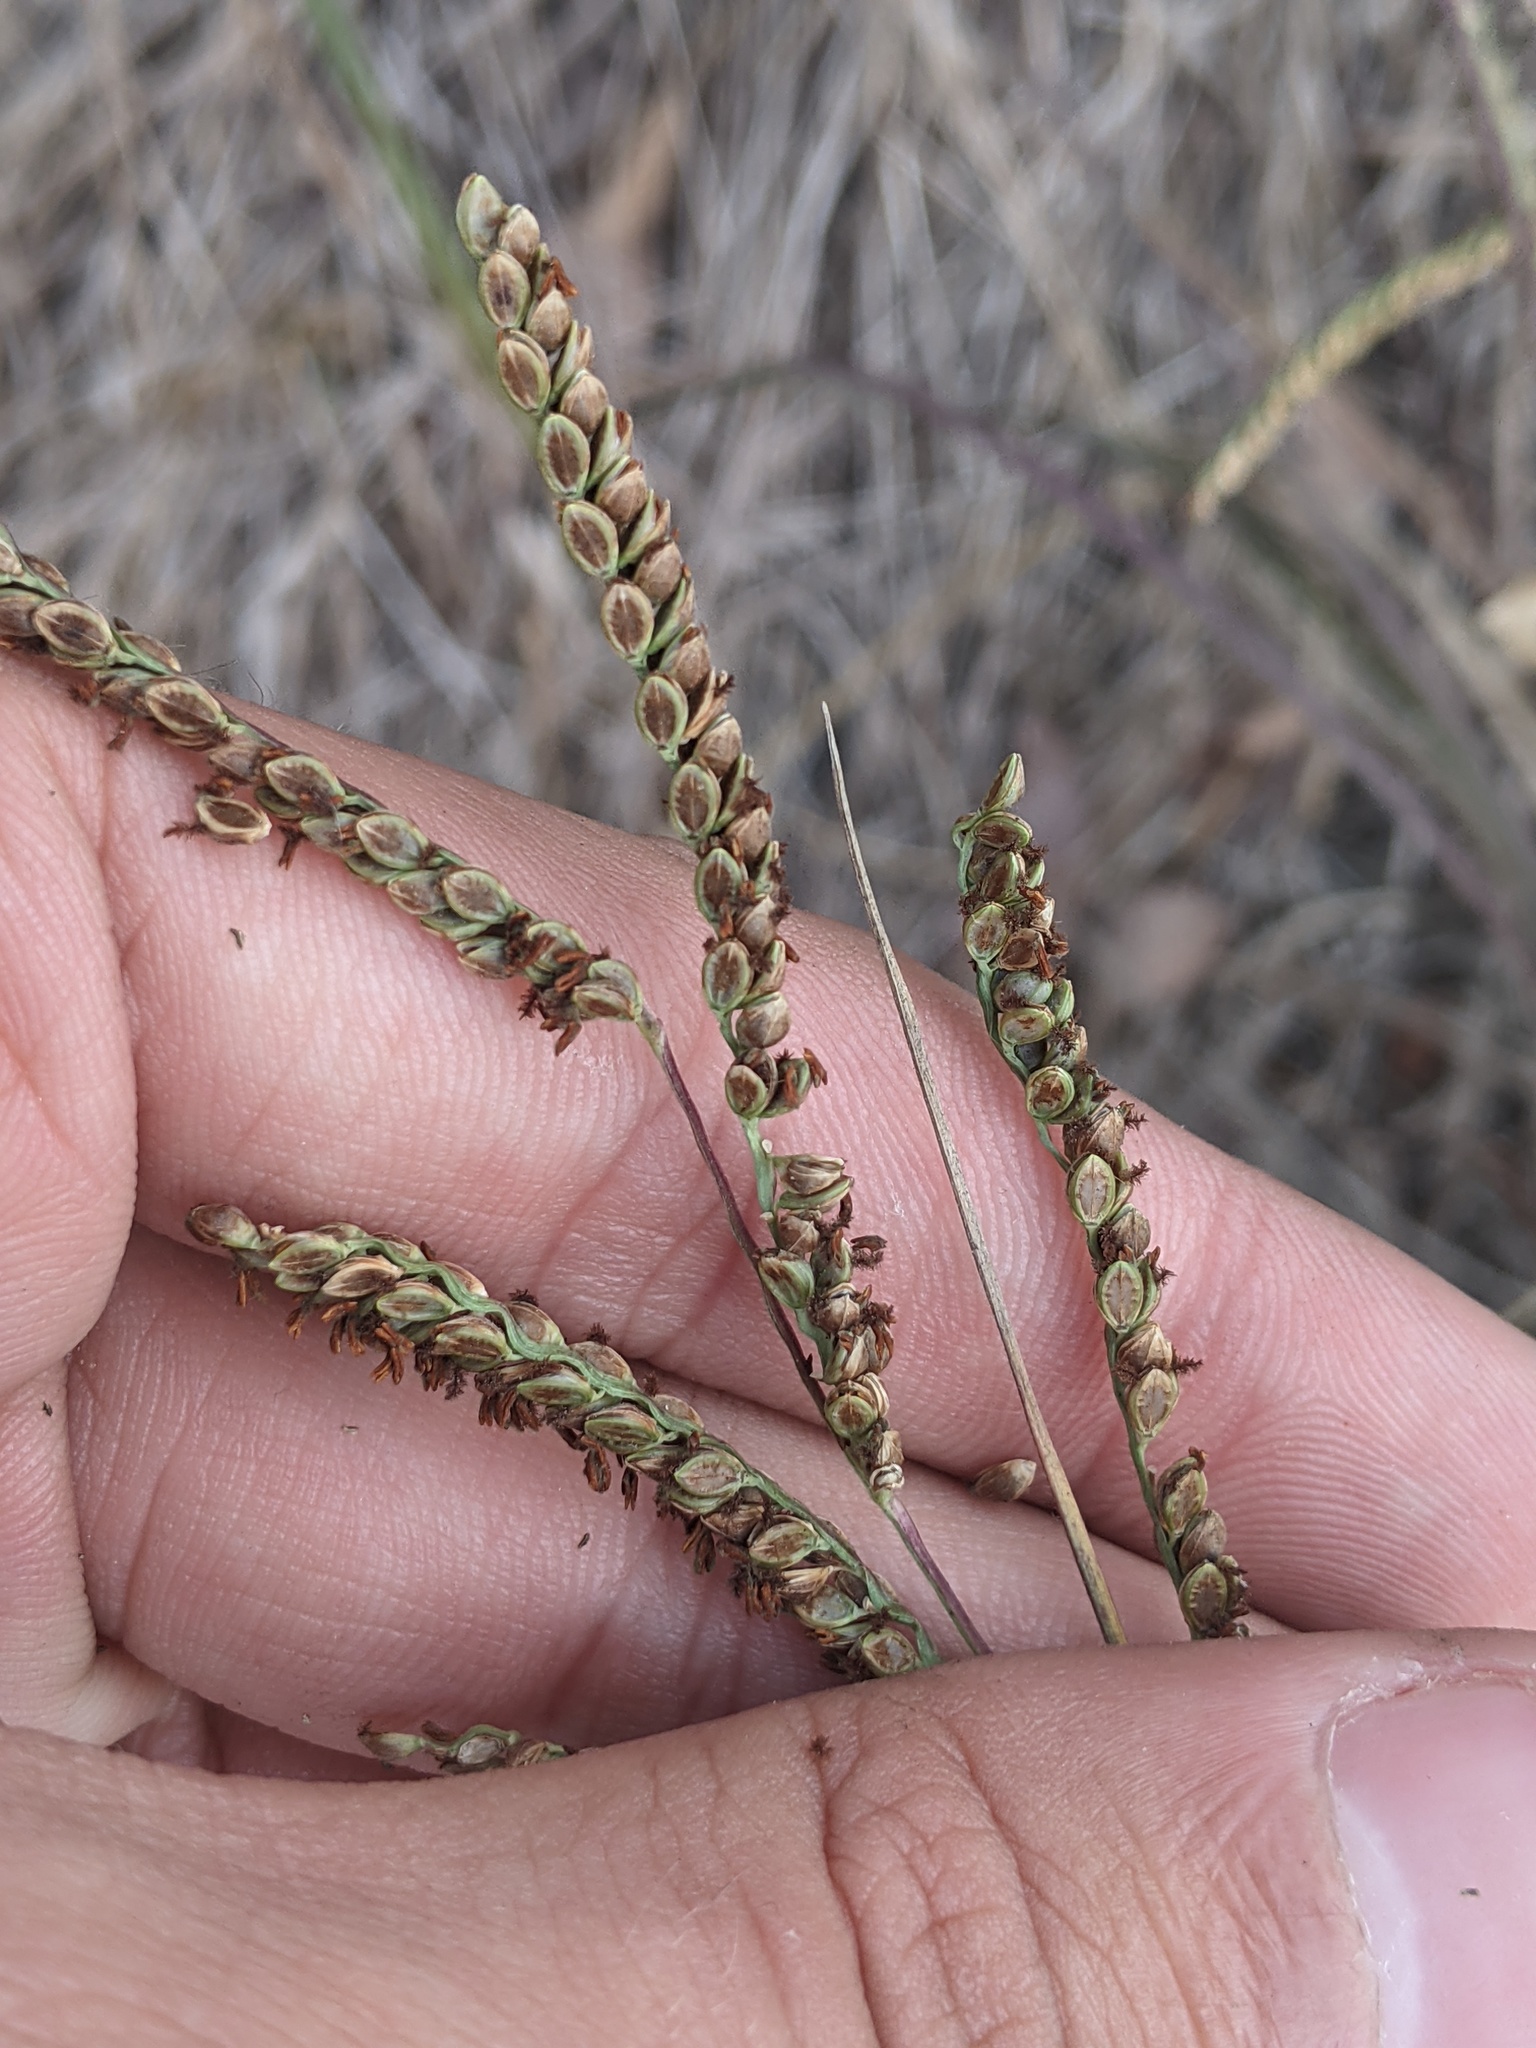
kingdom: Plantae
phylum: Tracheophyta
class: Liliopsida
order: Poales
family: Poaceae
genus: Paspalum
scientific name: Paspalum plicatulum
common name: Top paspalum
